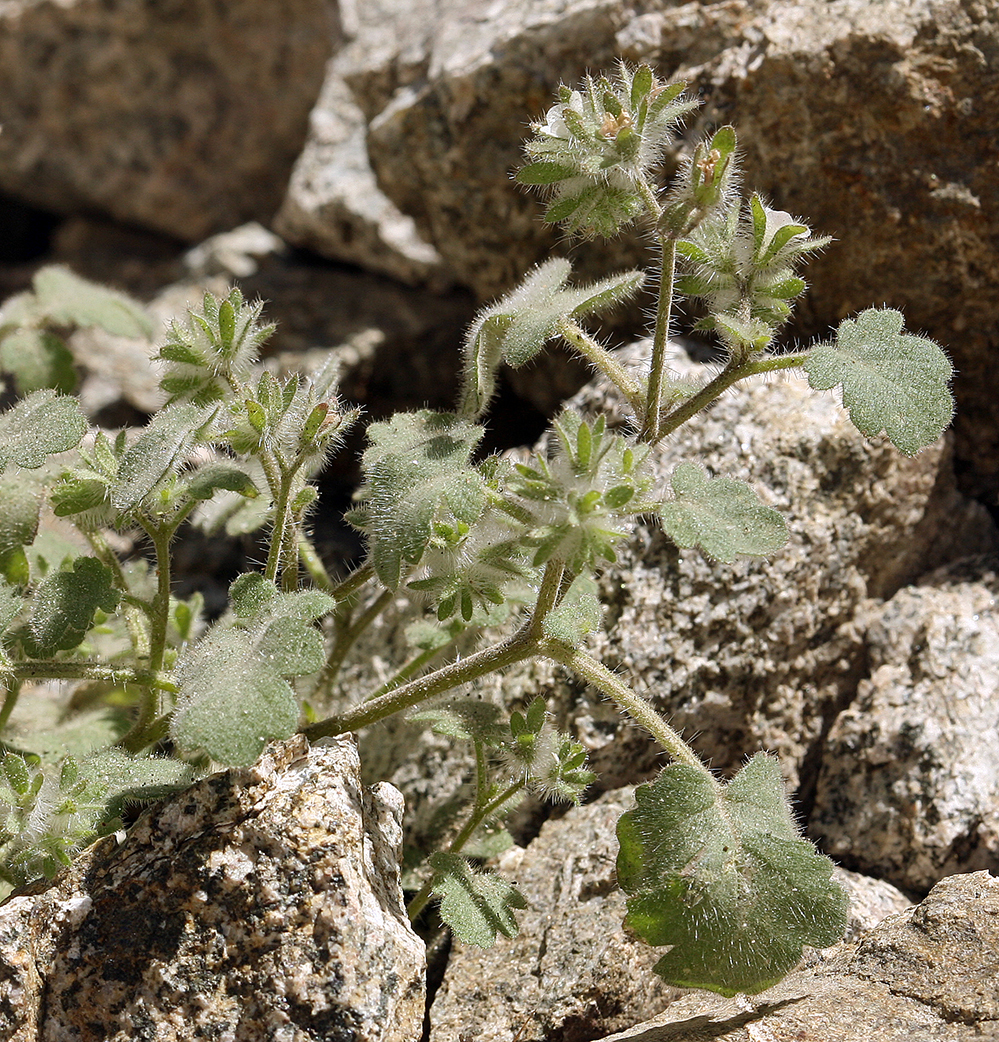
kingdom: Plantae
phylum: Tracheophyta
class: Magnoliopsida
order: Boraginales
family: Hydrophyllaceae
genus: Phacelia
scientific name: Phacelia cryptantha
